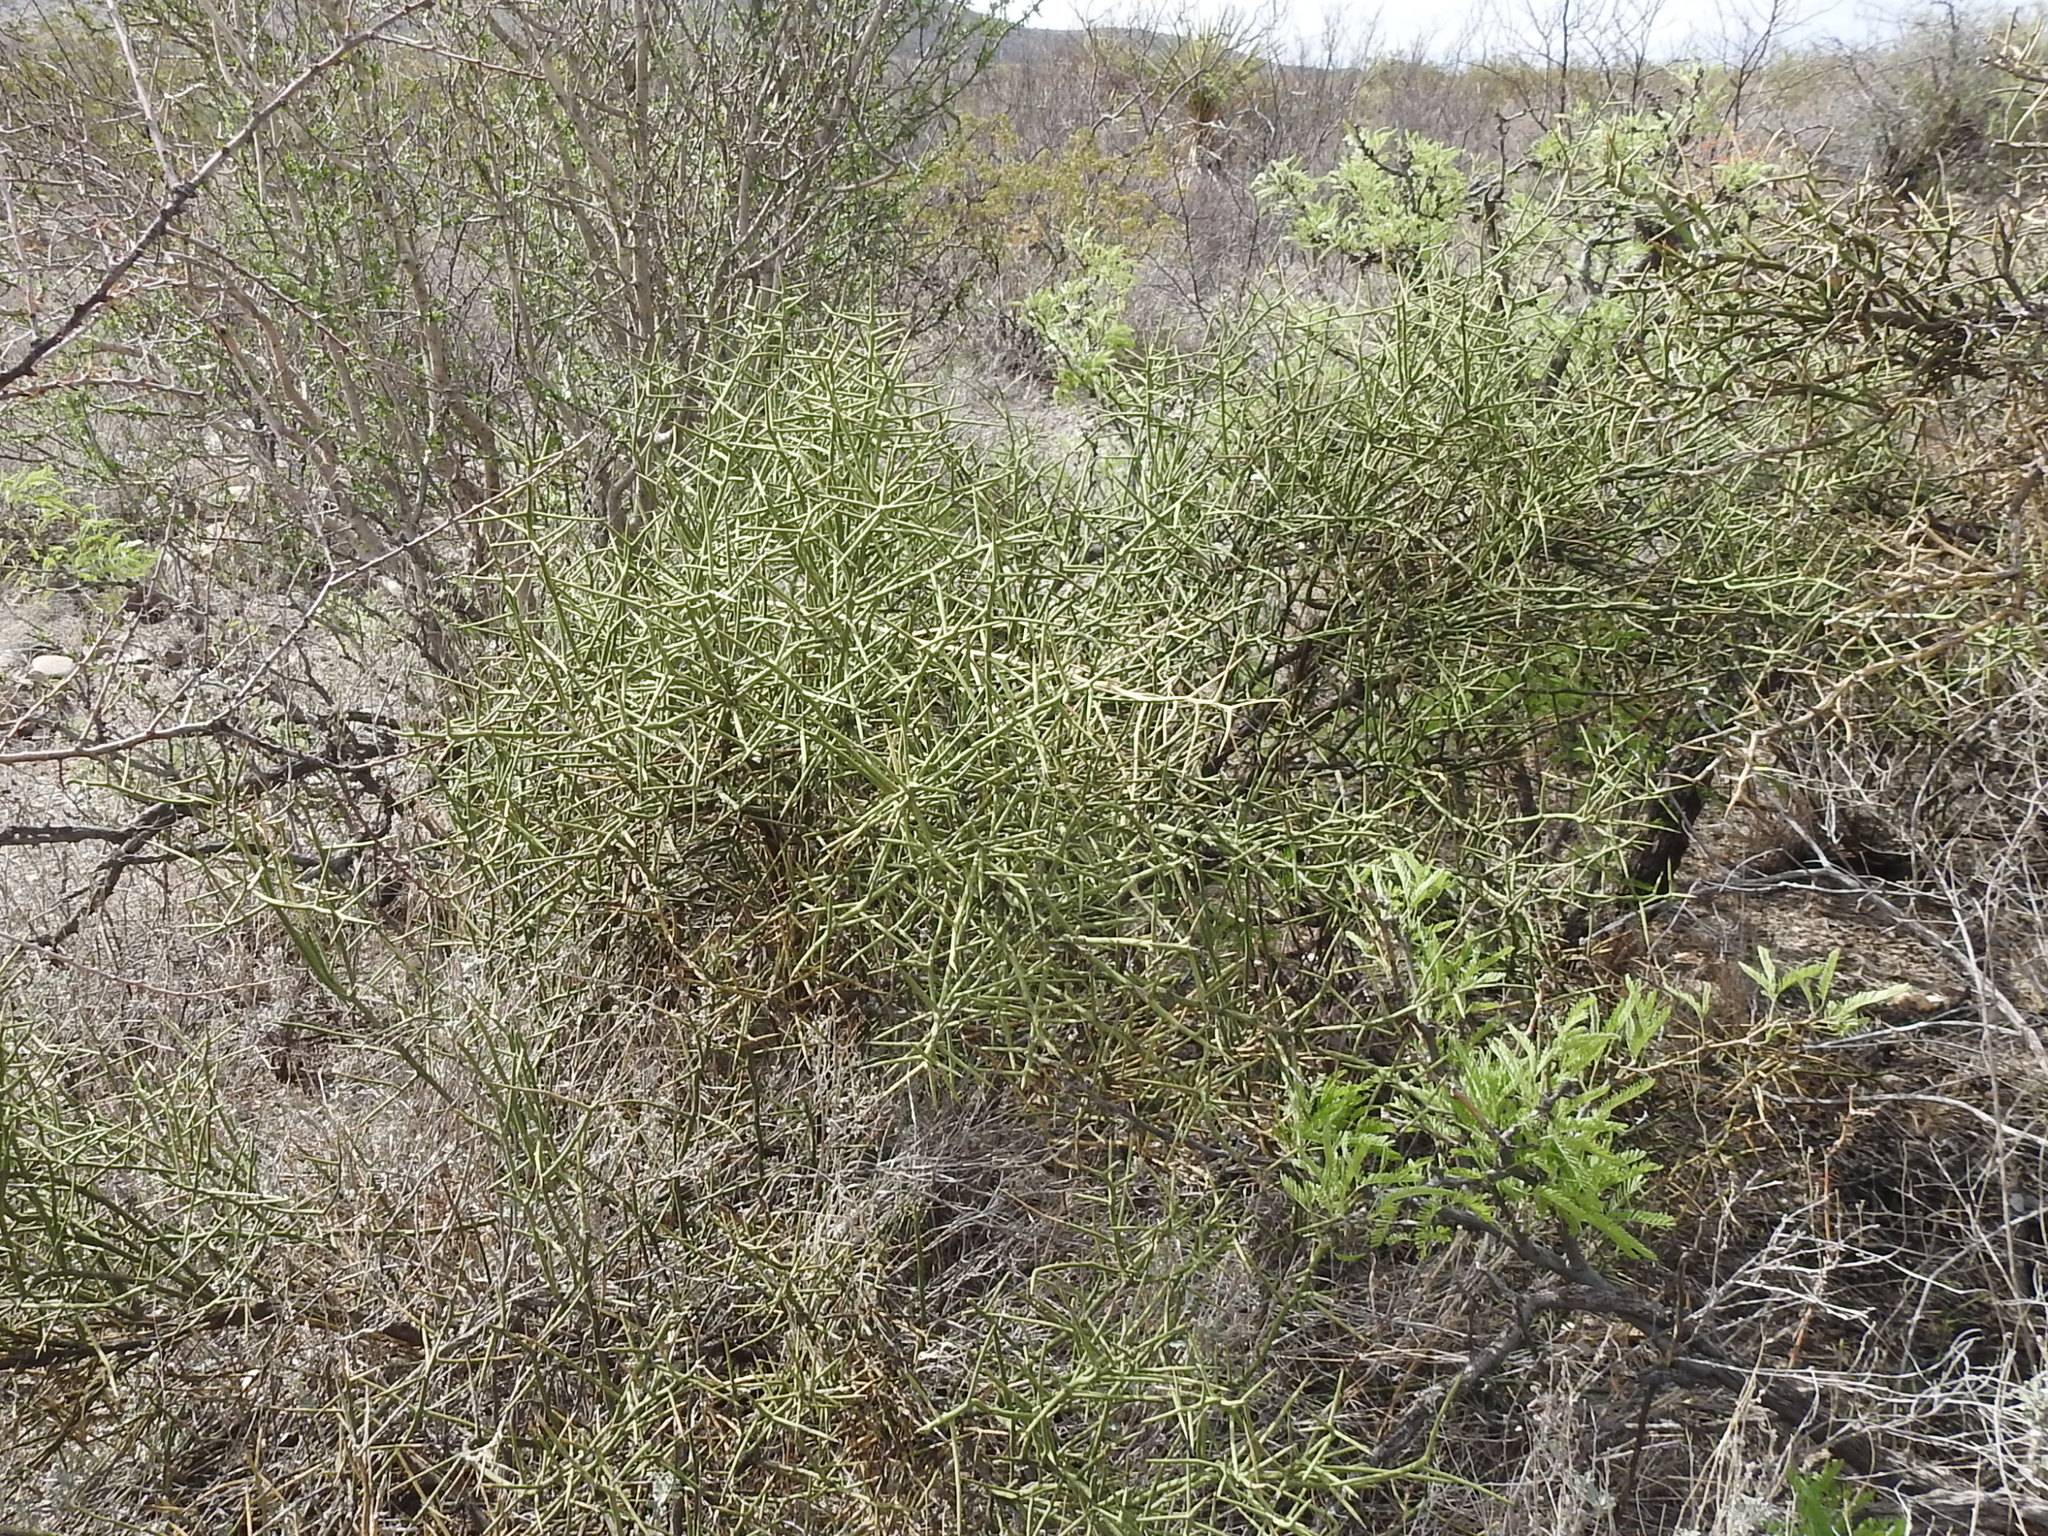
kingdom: Plantae
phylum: Tracheophyta
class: Magnoliopsida
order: Brassicales
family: Koeberliniaceae
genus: Koeberlinia
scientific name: Koeberlinia spinosa
